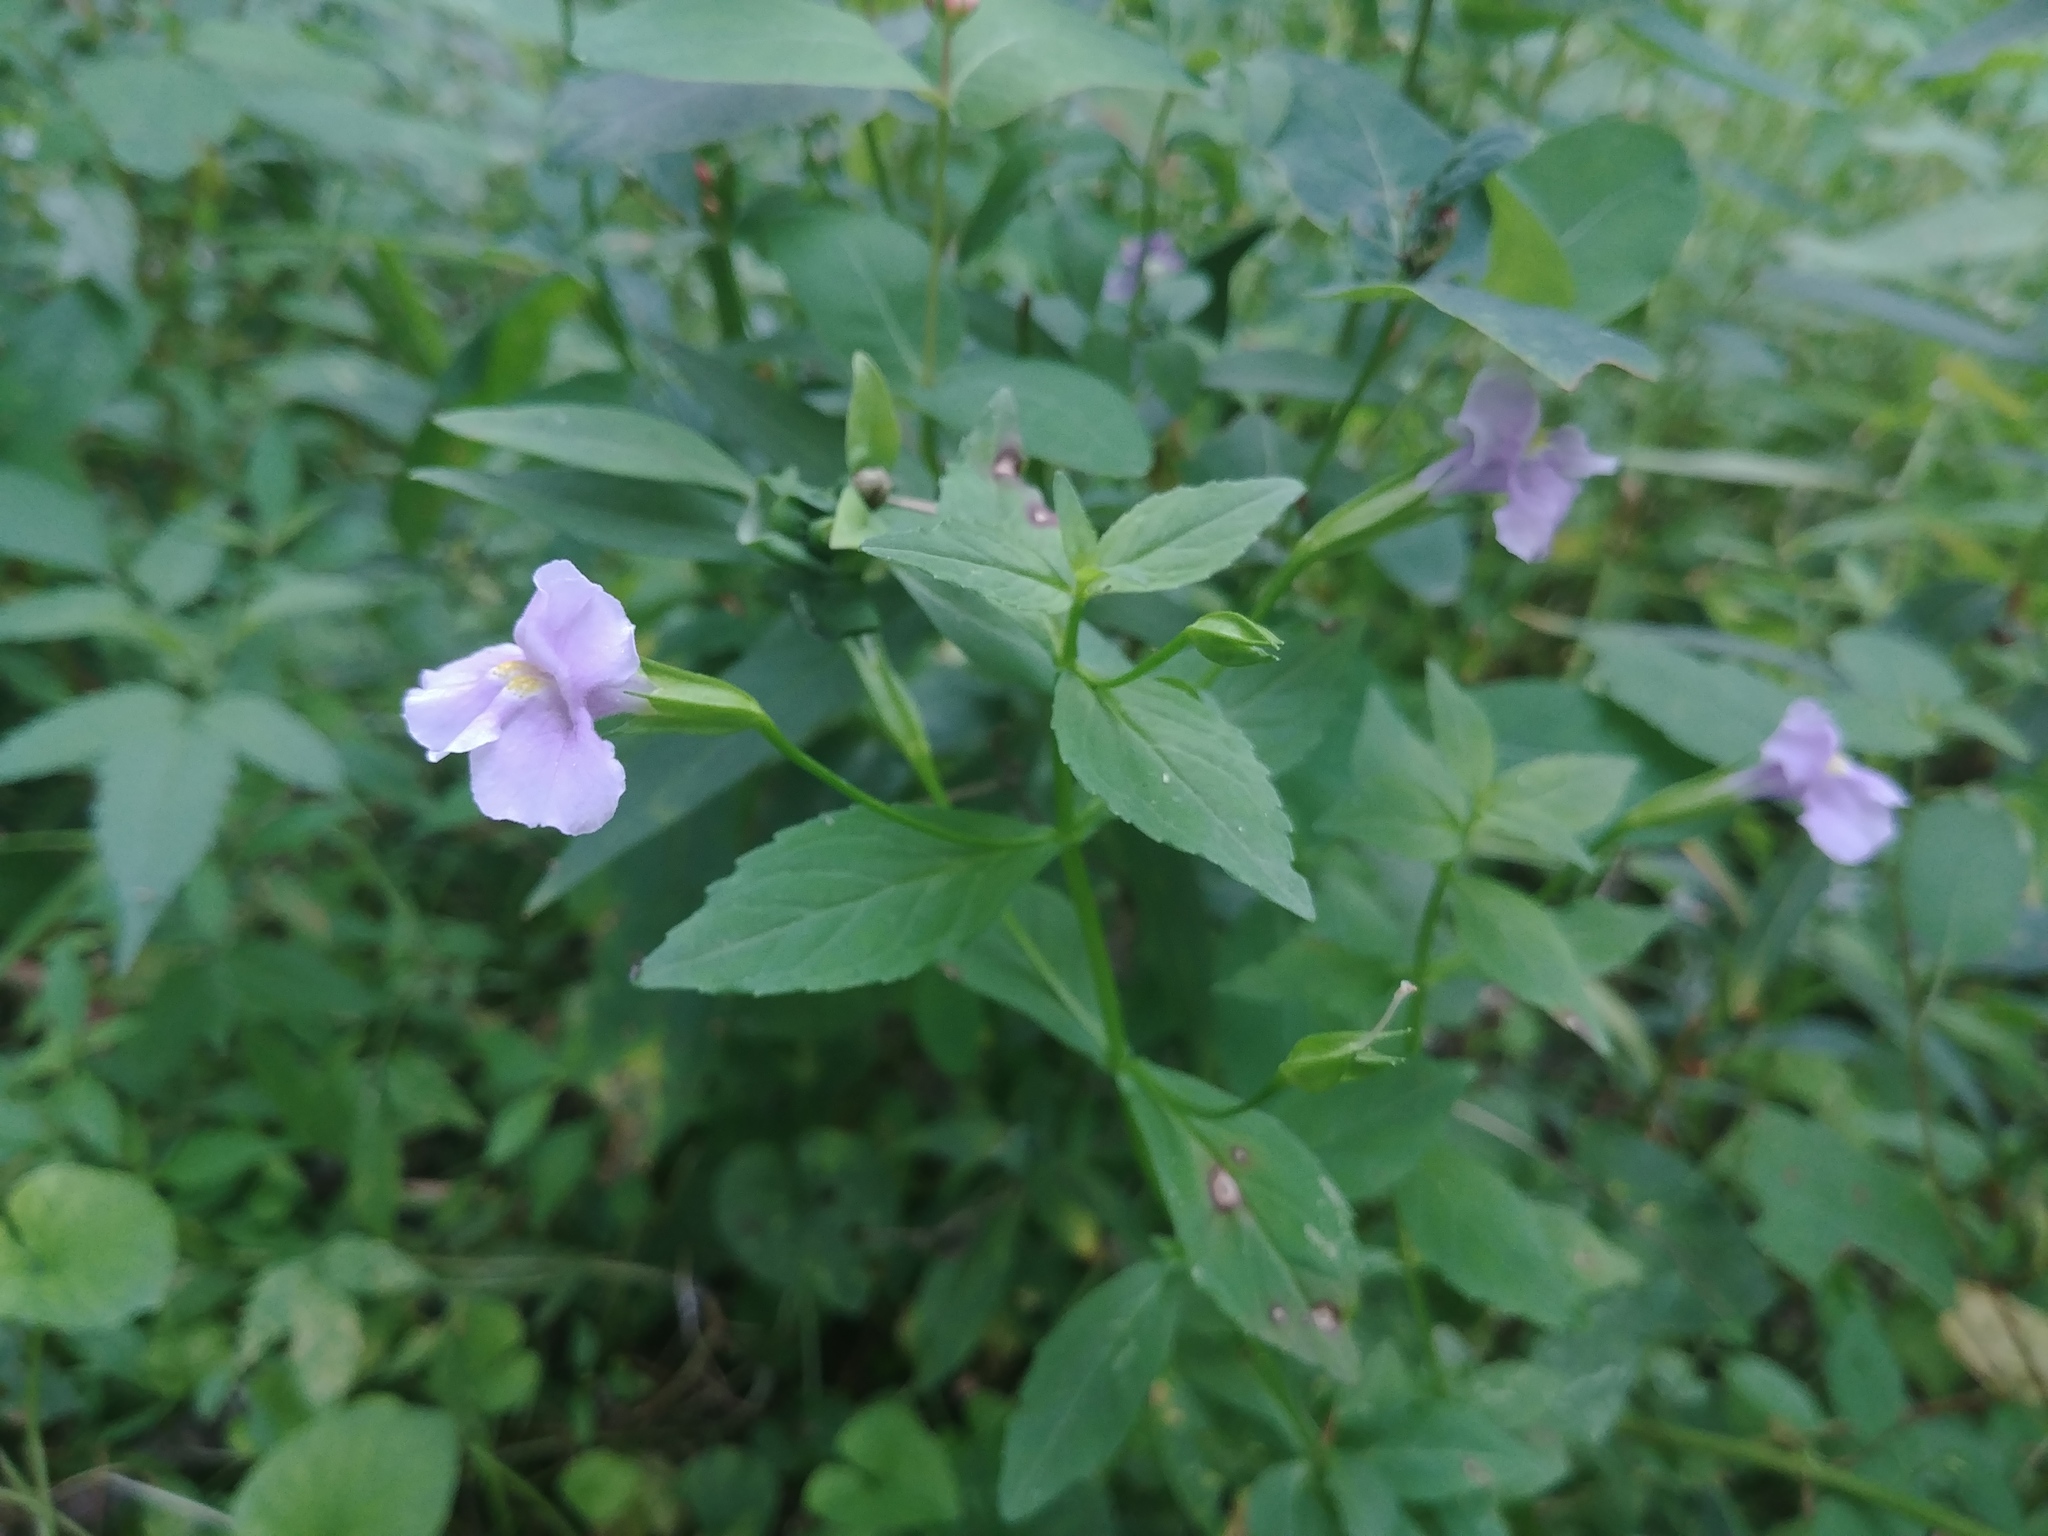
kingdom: Plantae
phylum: Tracheophyta
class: Magnoliopsida
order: Lamiales
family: Phrymaceae
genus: Mimulus
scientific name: Mimulus ringens
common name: Allegheny monkeyflower
